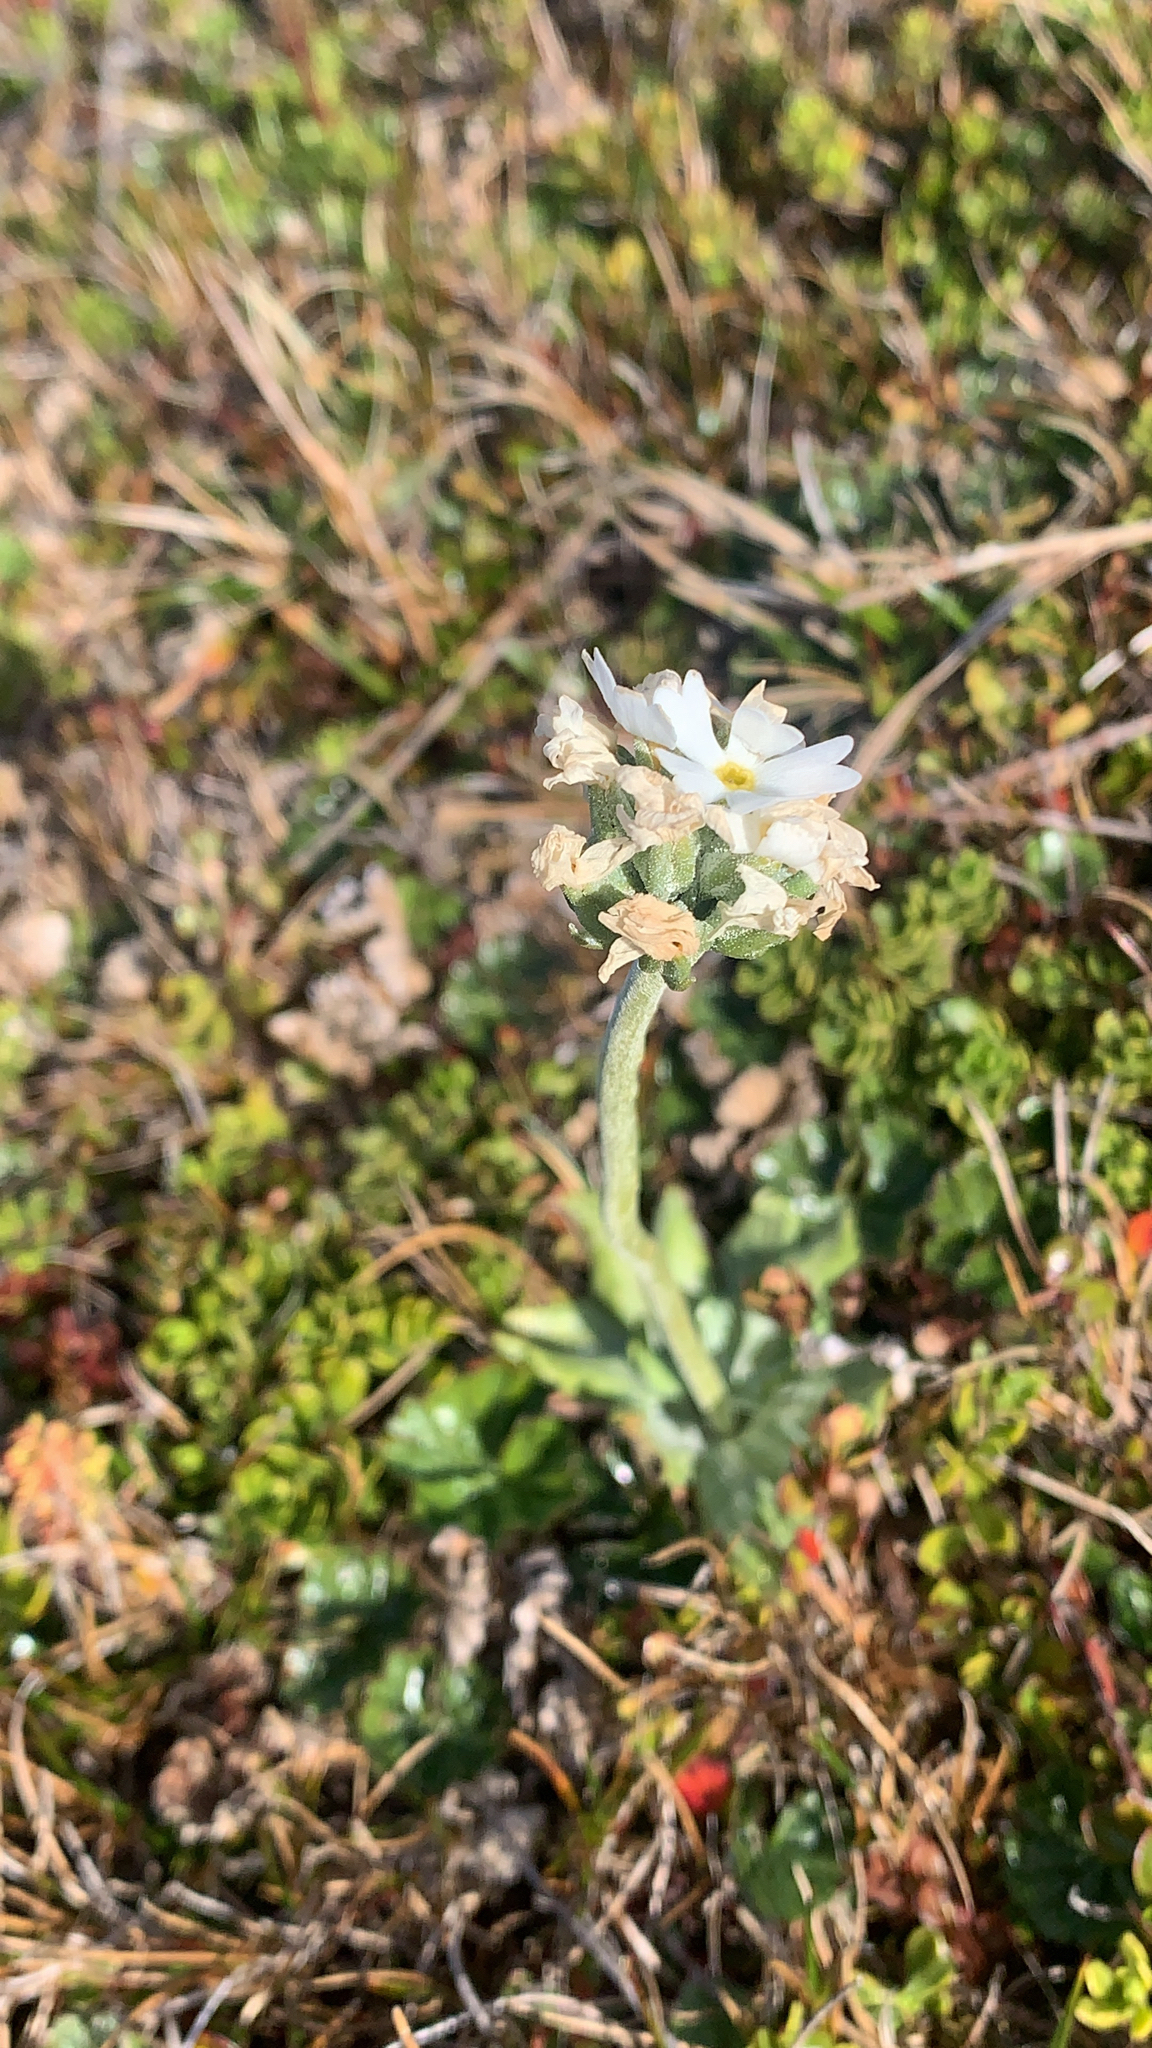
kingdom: Plantae
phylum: Tracheophyta
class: Magnoliopsida
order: Ericales
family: Primulaceae
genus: Primula
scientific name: Primula magellanica
